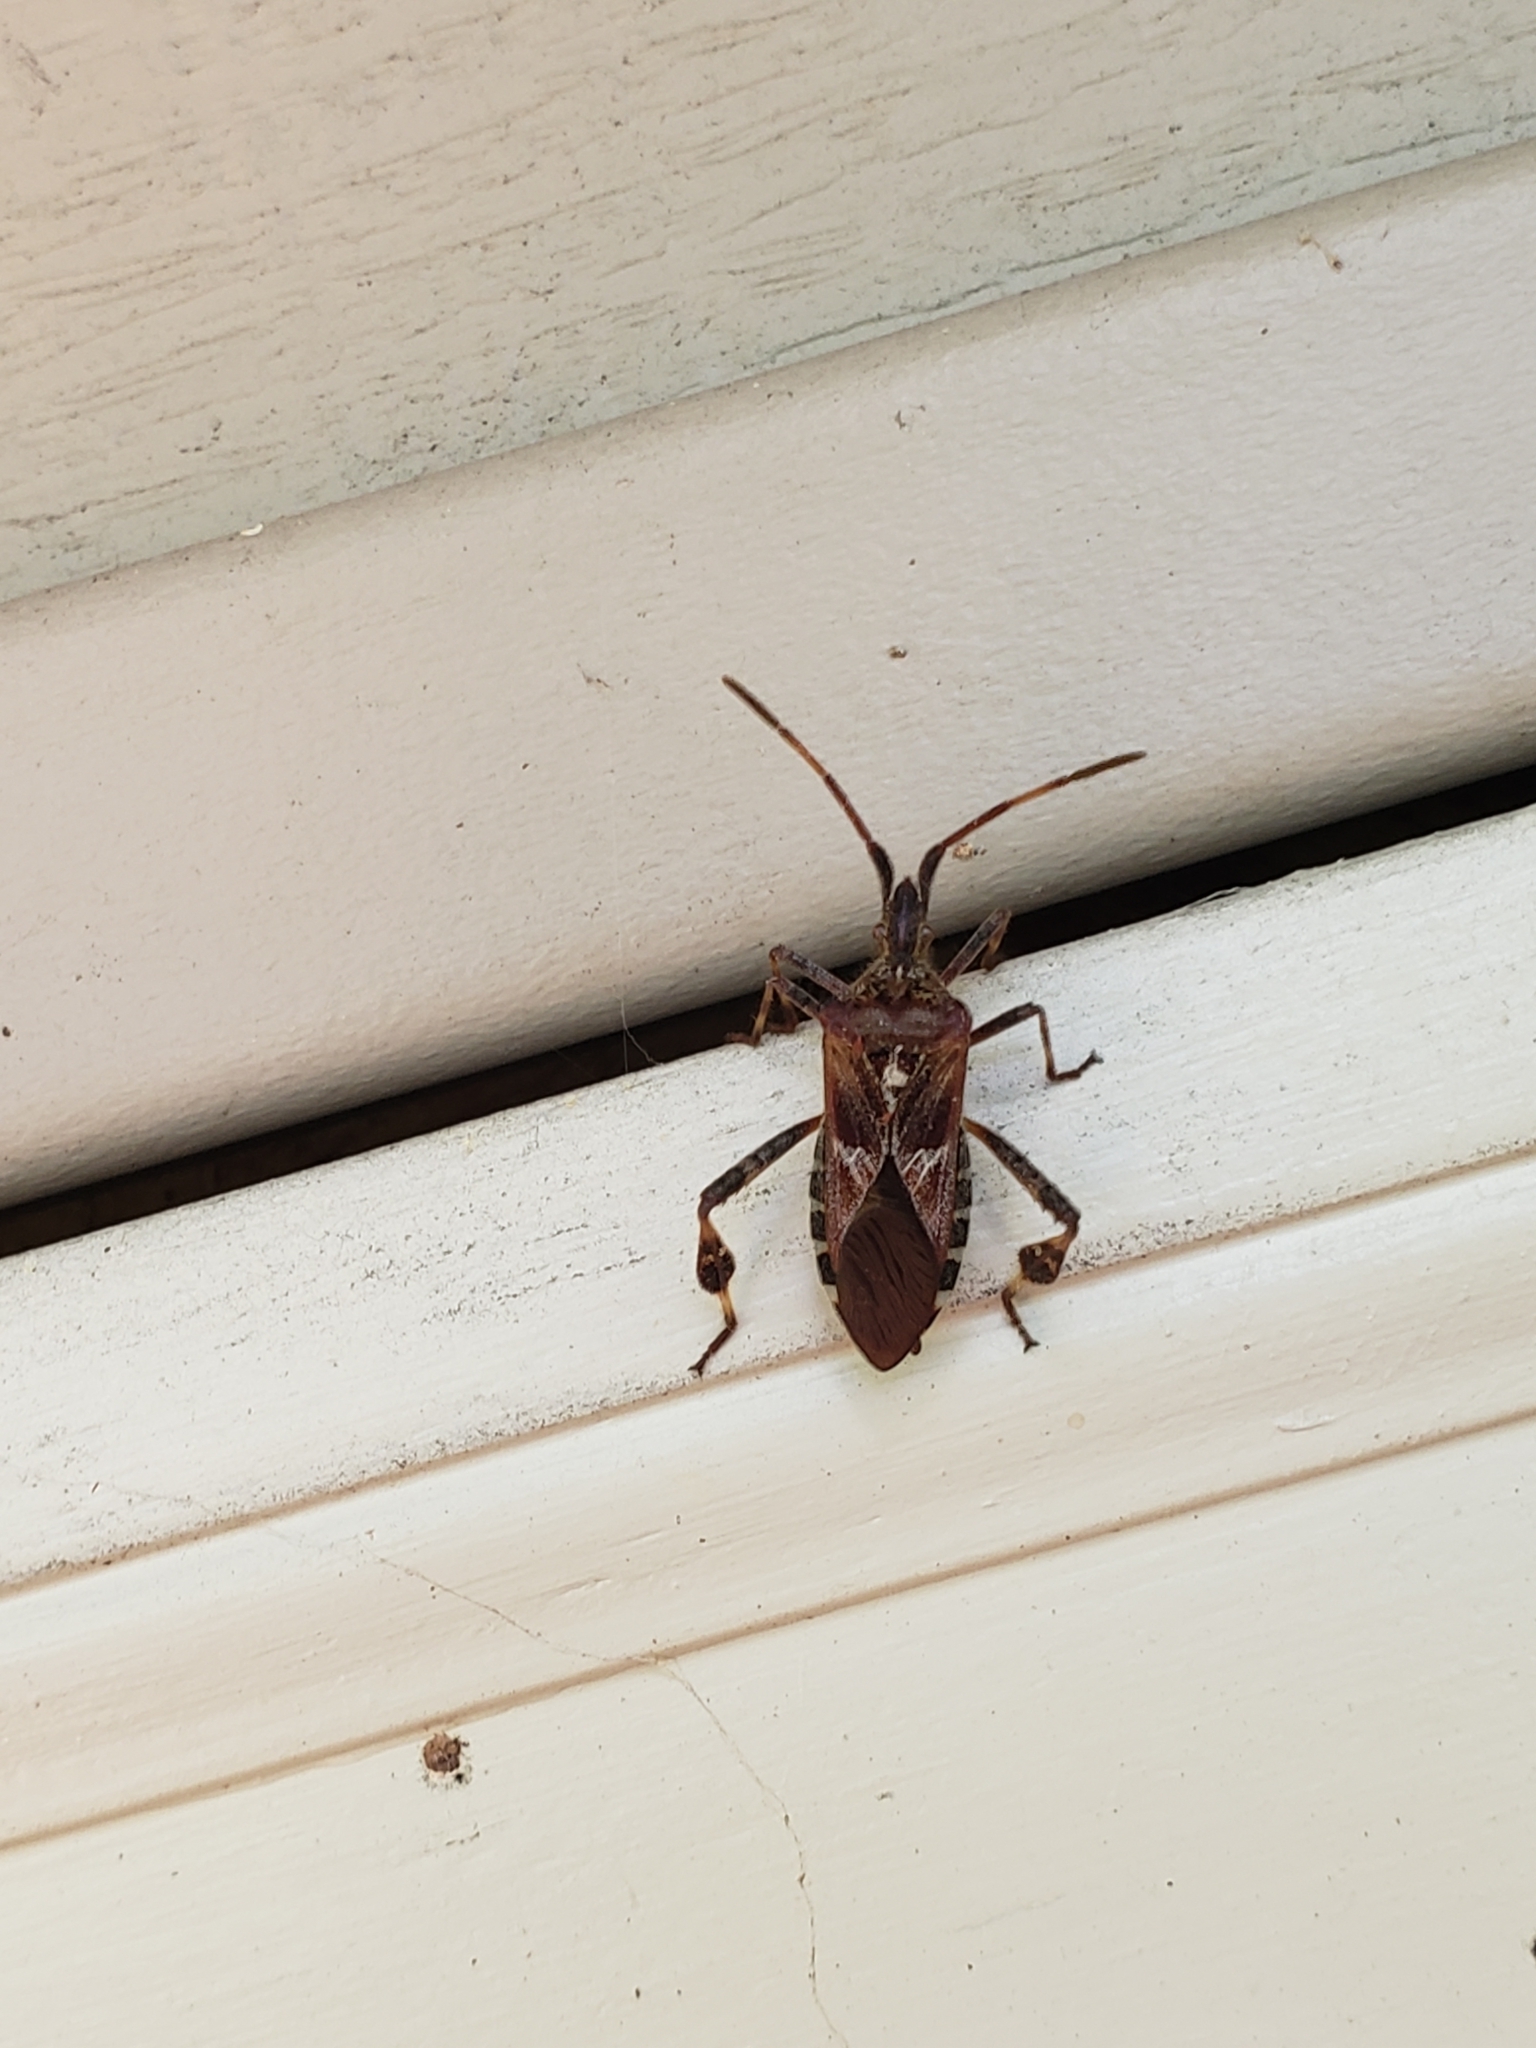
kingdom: Animalia
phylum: Arthropoda
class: Insecta
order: Hemiptera
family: Coreidae
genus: Leptoglossus
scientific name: Leptoglossus occidentalis
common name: Western conifer-seed bug
